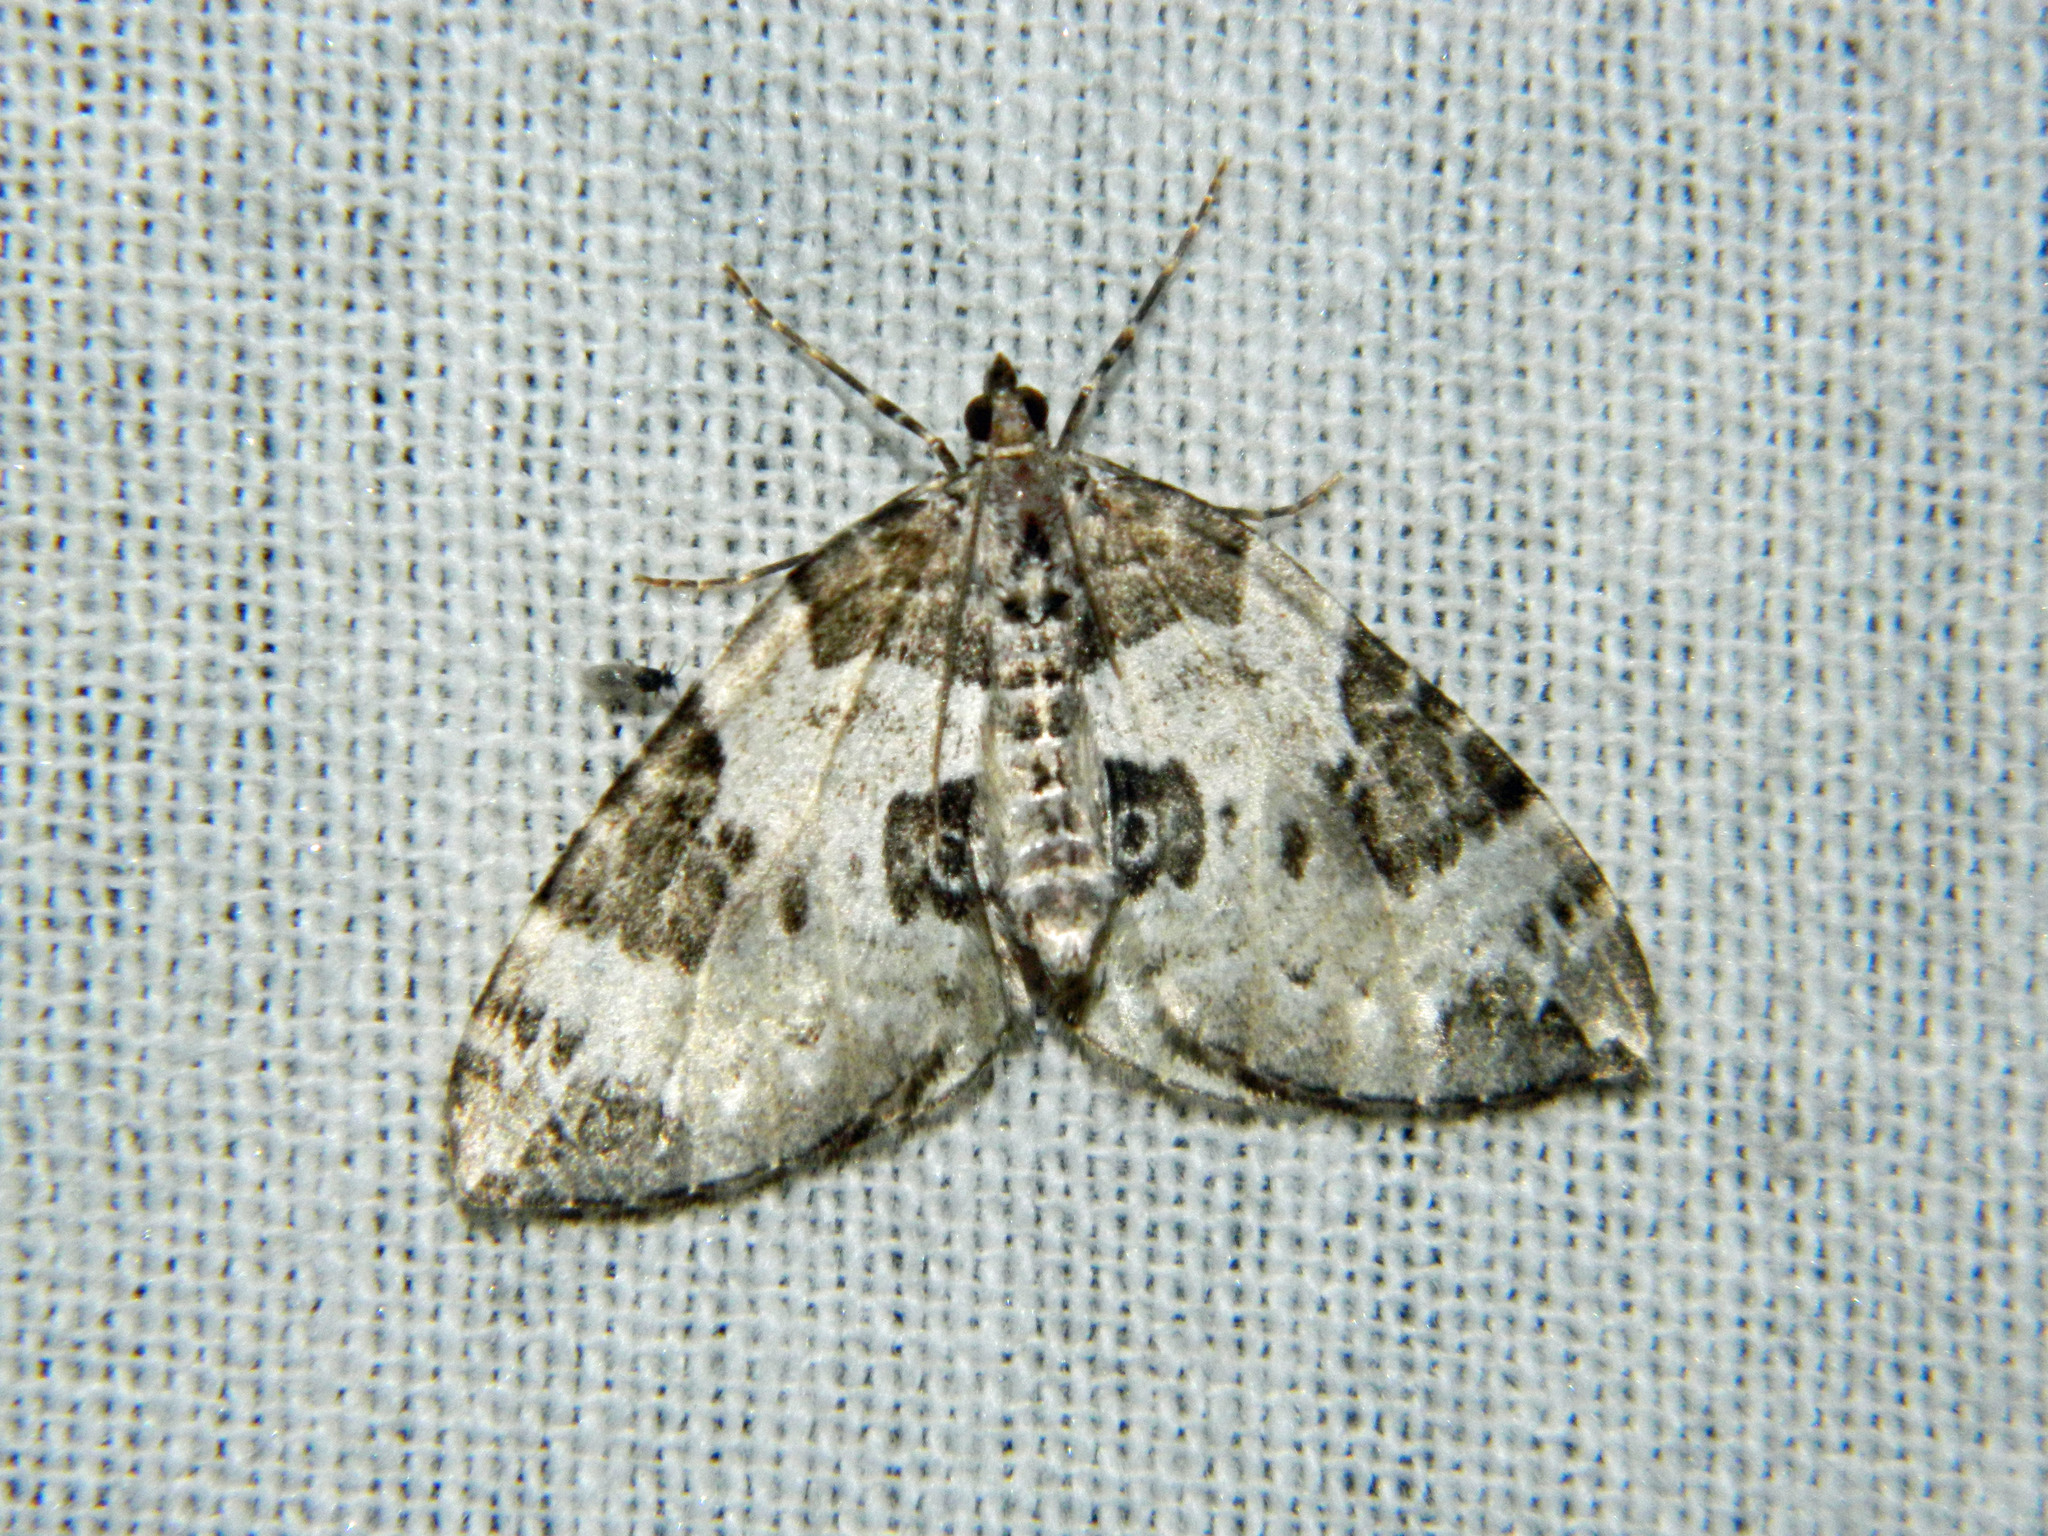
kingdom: Animalia
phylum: Arthropoda
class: Insecta
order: Lepidoptera
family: Geometridae
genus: Eulithis
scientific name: Eulithis explanata
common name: White eulithis
